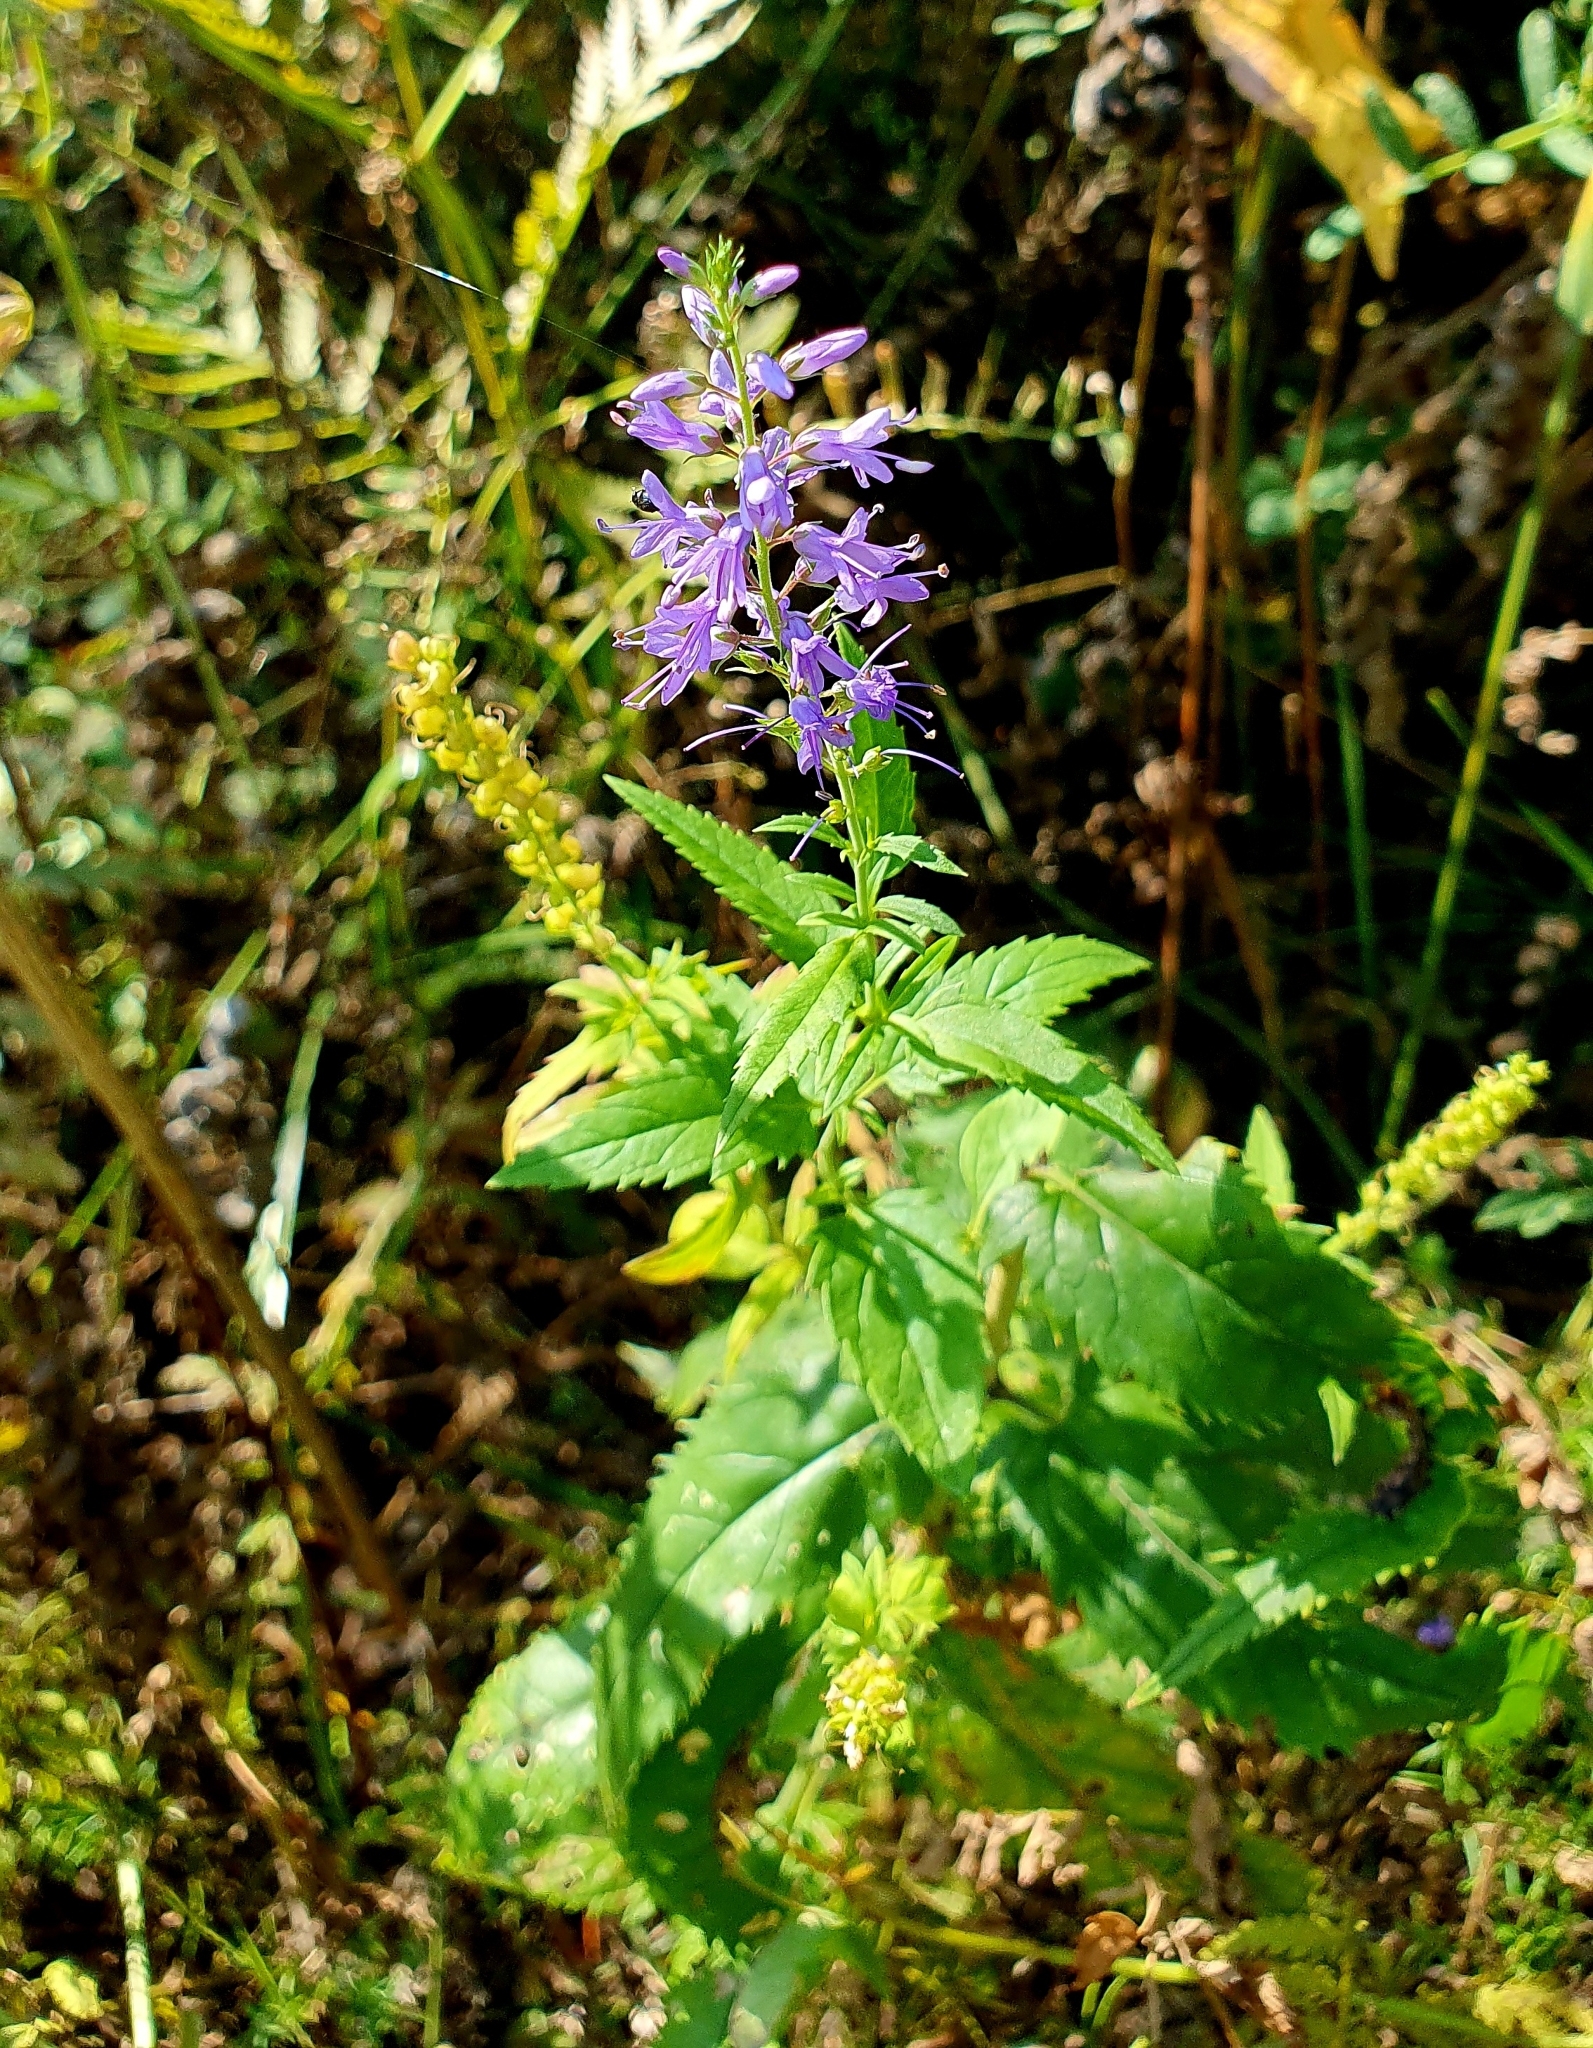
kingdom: Plantae
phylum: Tracheophyta
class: Magnoliopsida
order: Lamiales
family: Plantaginaceae
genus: Veronica
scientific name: Veronica longifolia
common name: Garden speedwell
